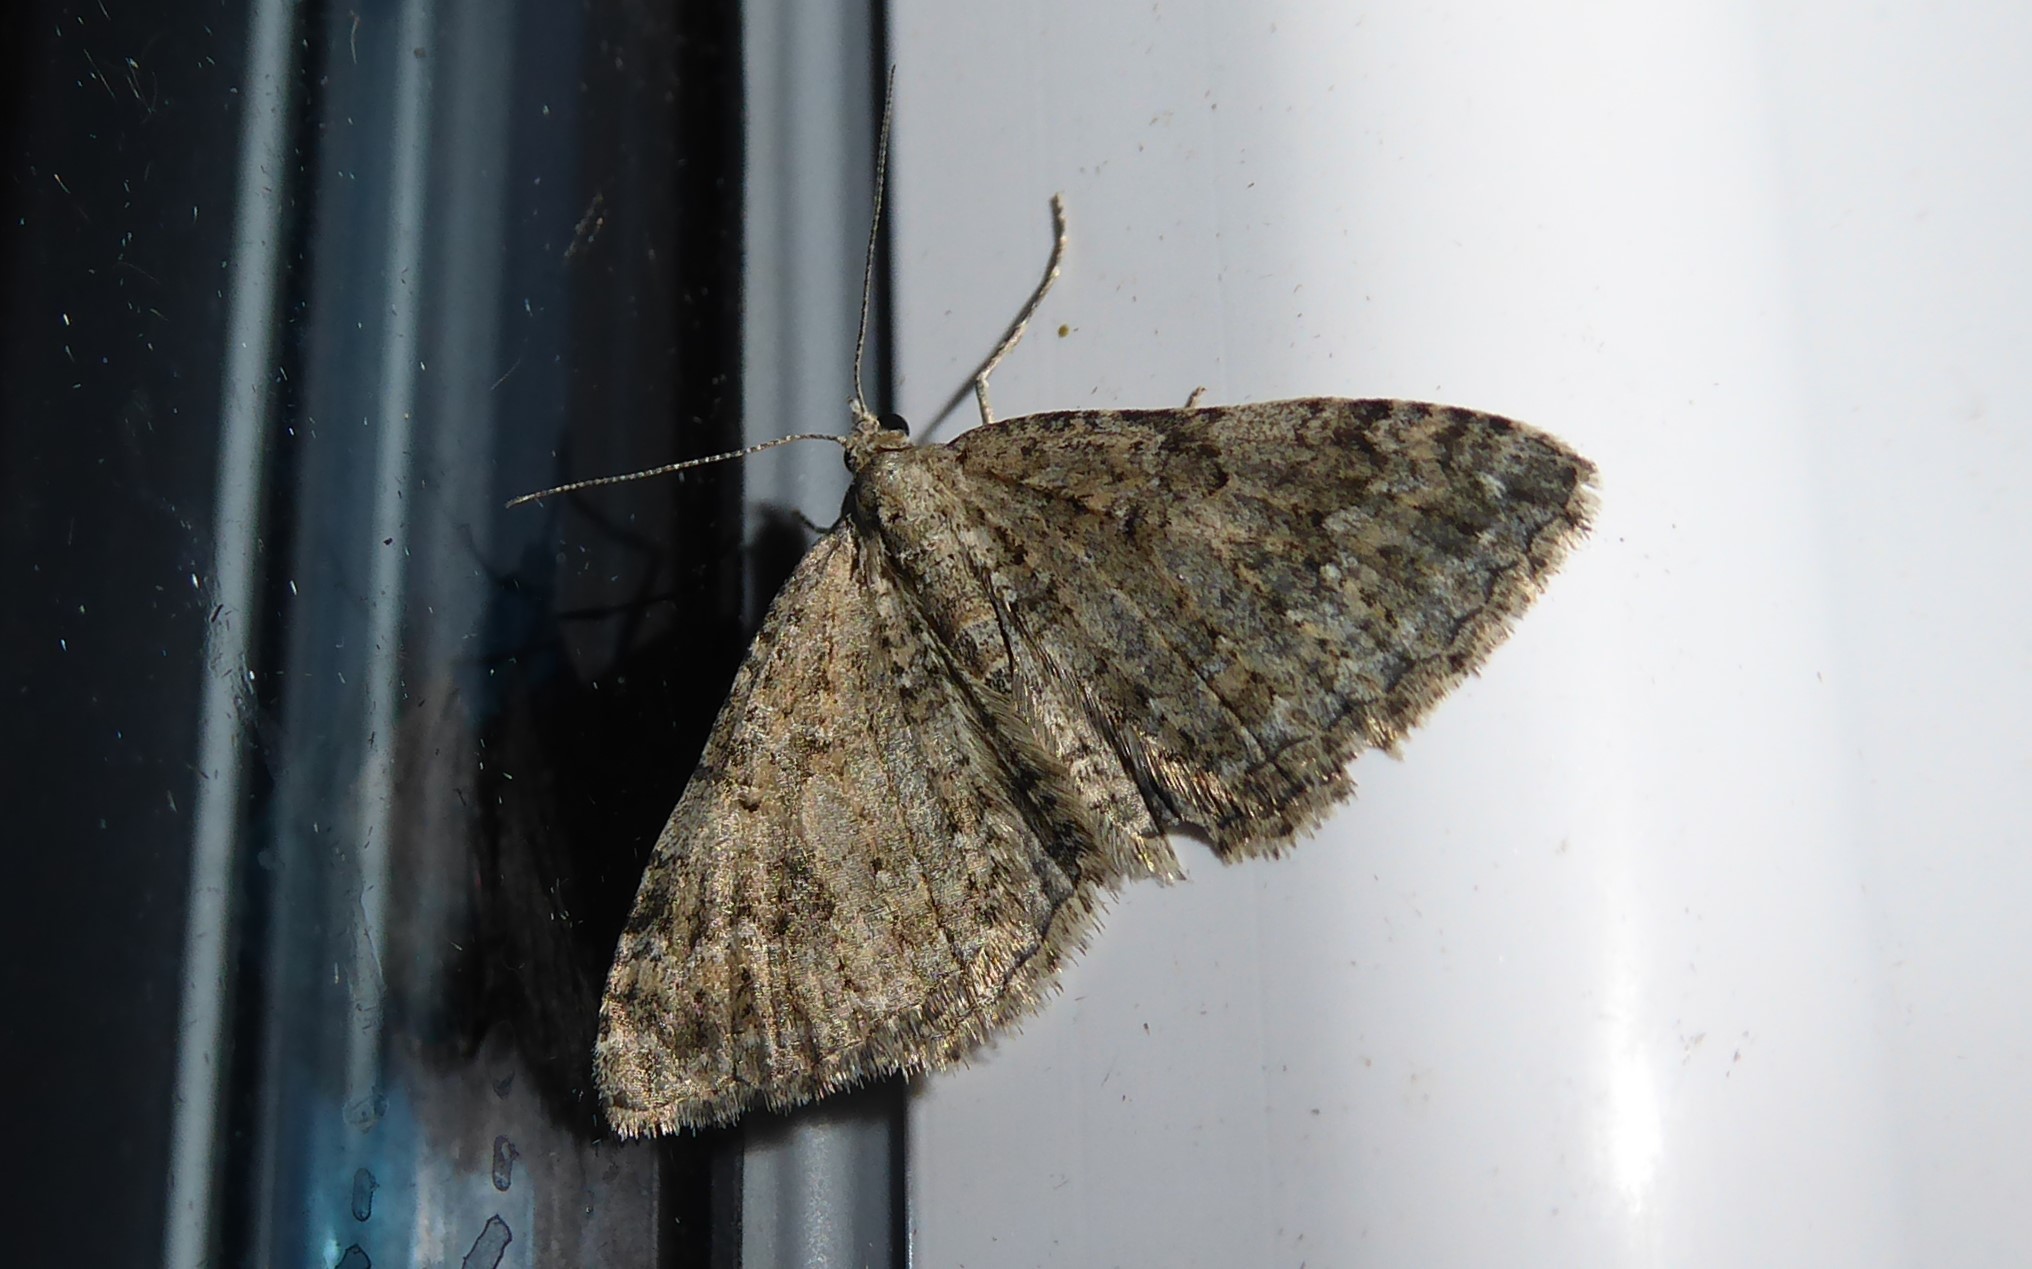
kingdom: Animalia
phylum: Arthropoda
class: Insecta
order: Lepidoptera
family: Geometridae
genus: Helastia
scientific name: Helastia corcularia
